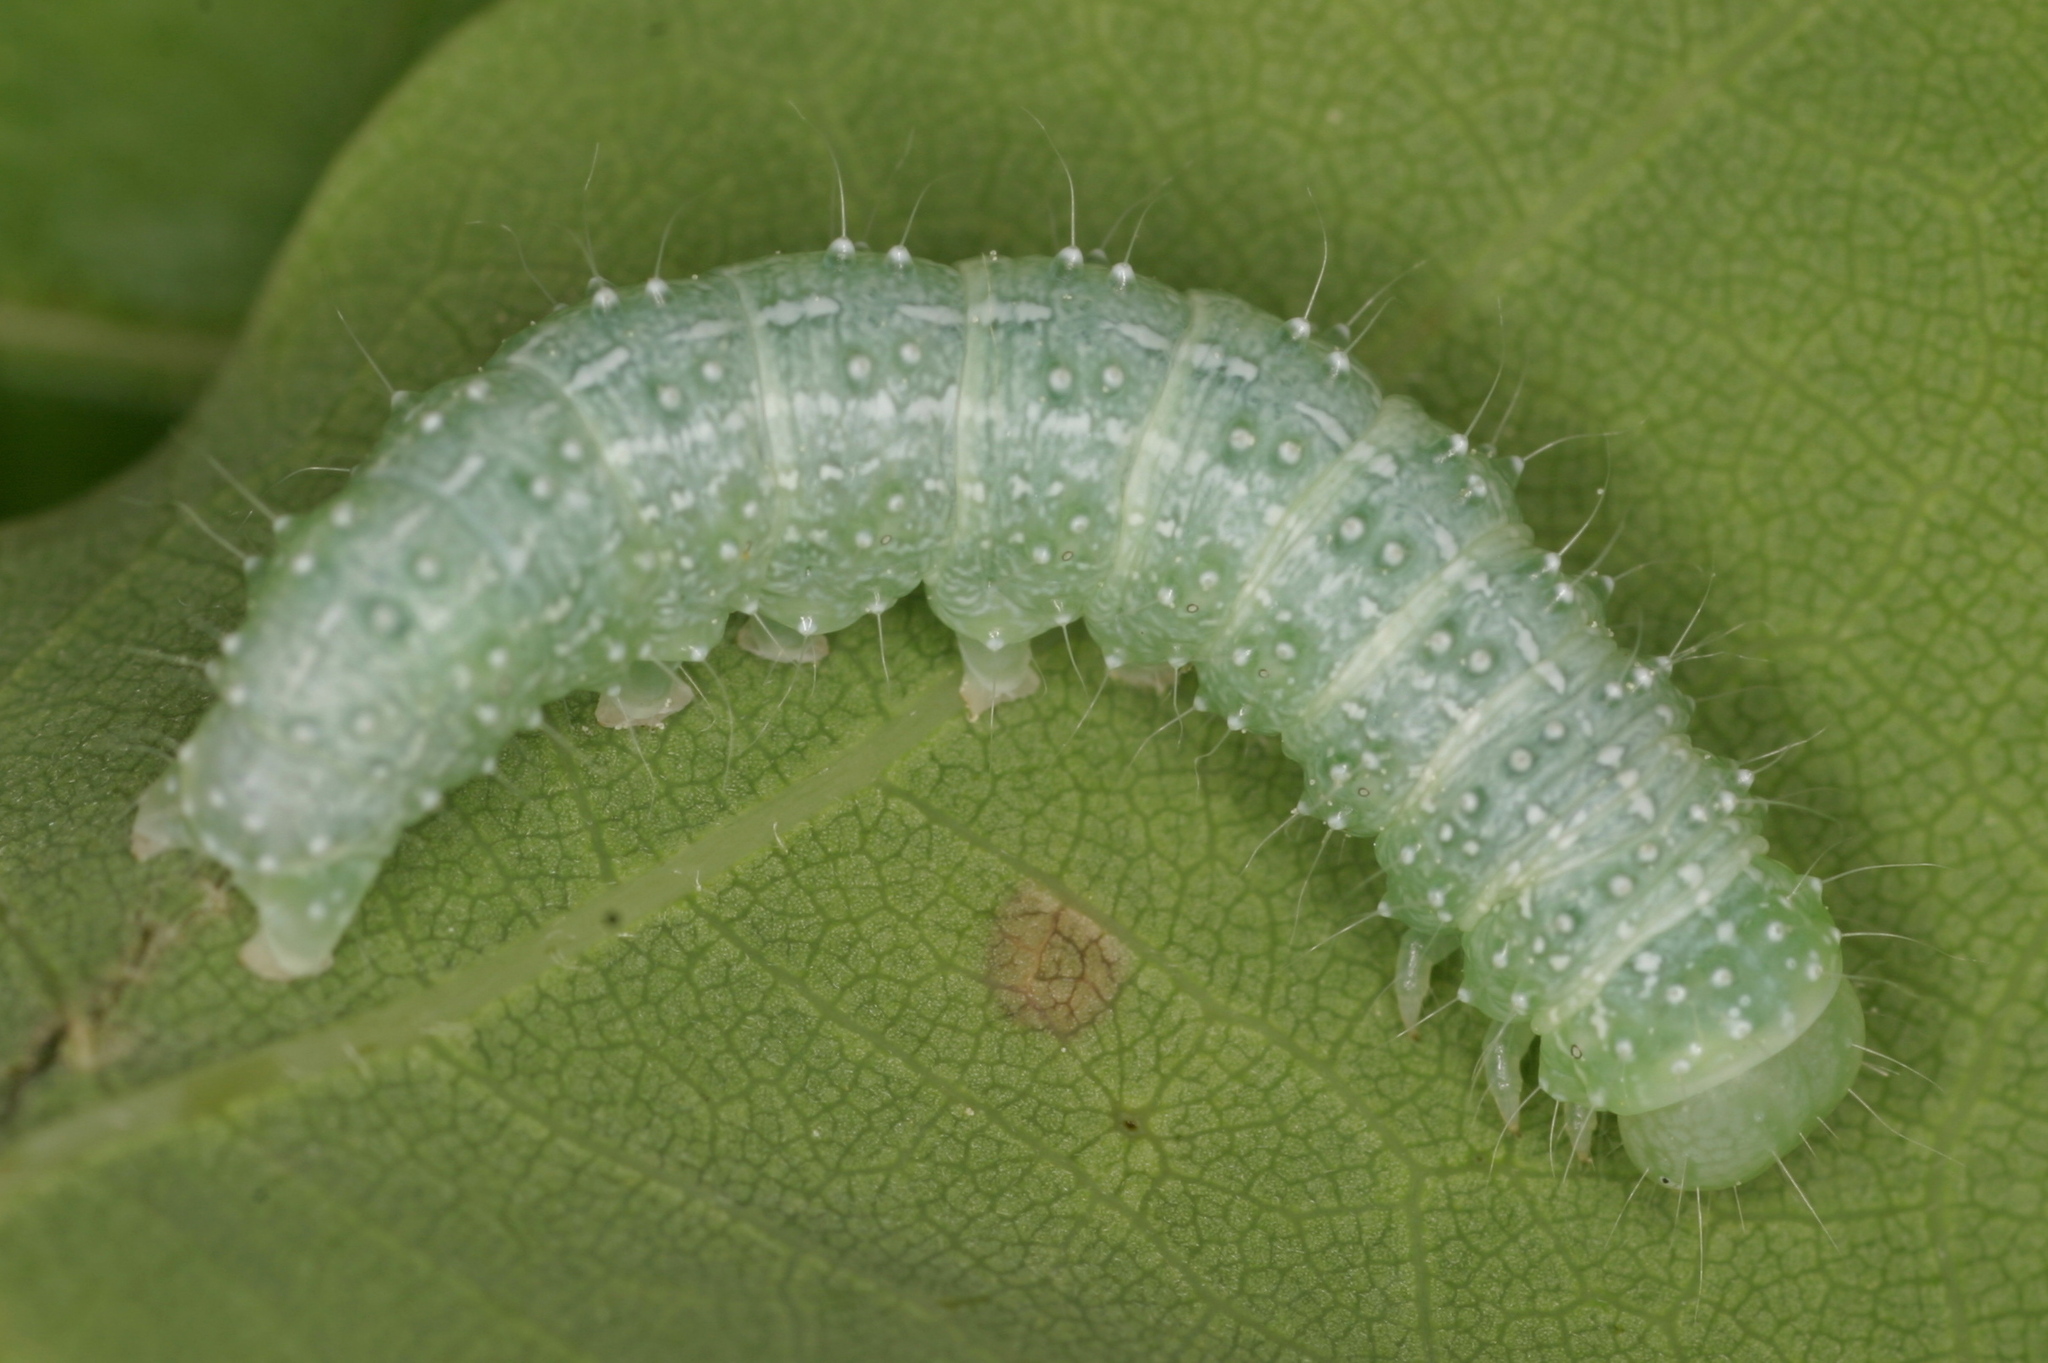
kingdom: Animalia
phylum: Arthropoda
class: Insecta
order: Lepidoptera
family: Noctuidae
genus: Lithophane
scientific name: Lithophane ornitopus
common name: Grey shoulder-knot
